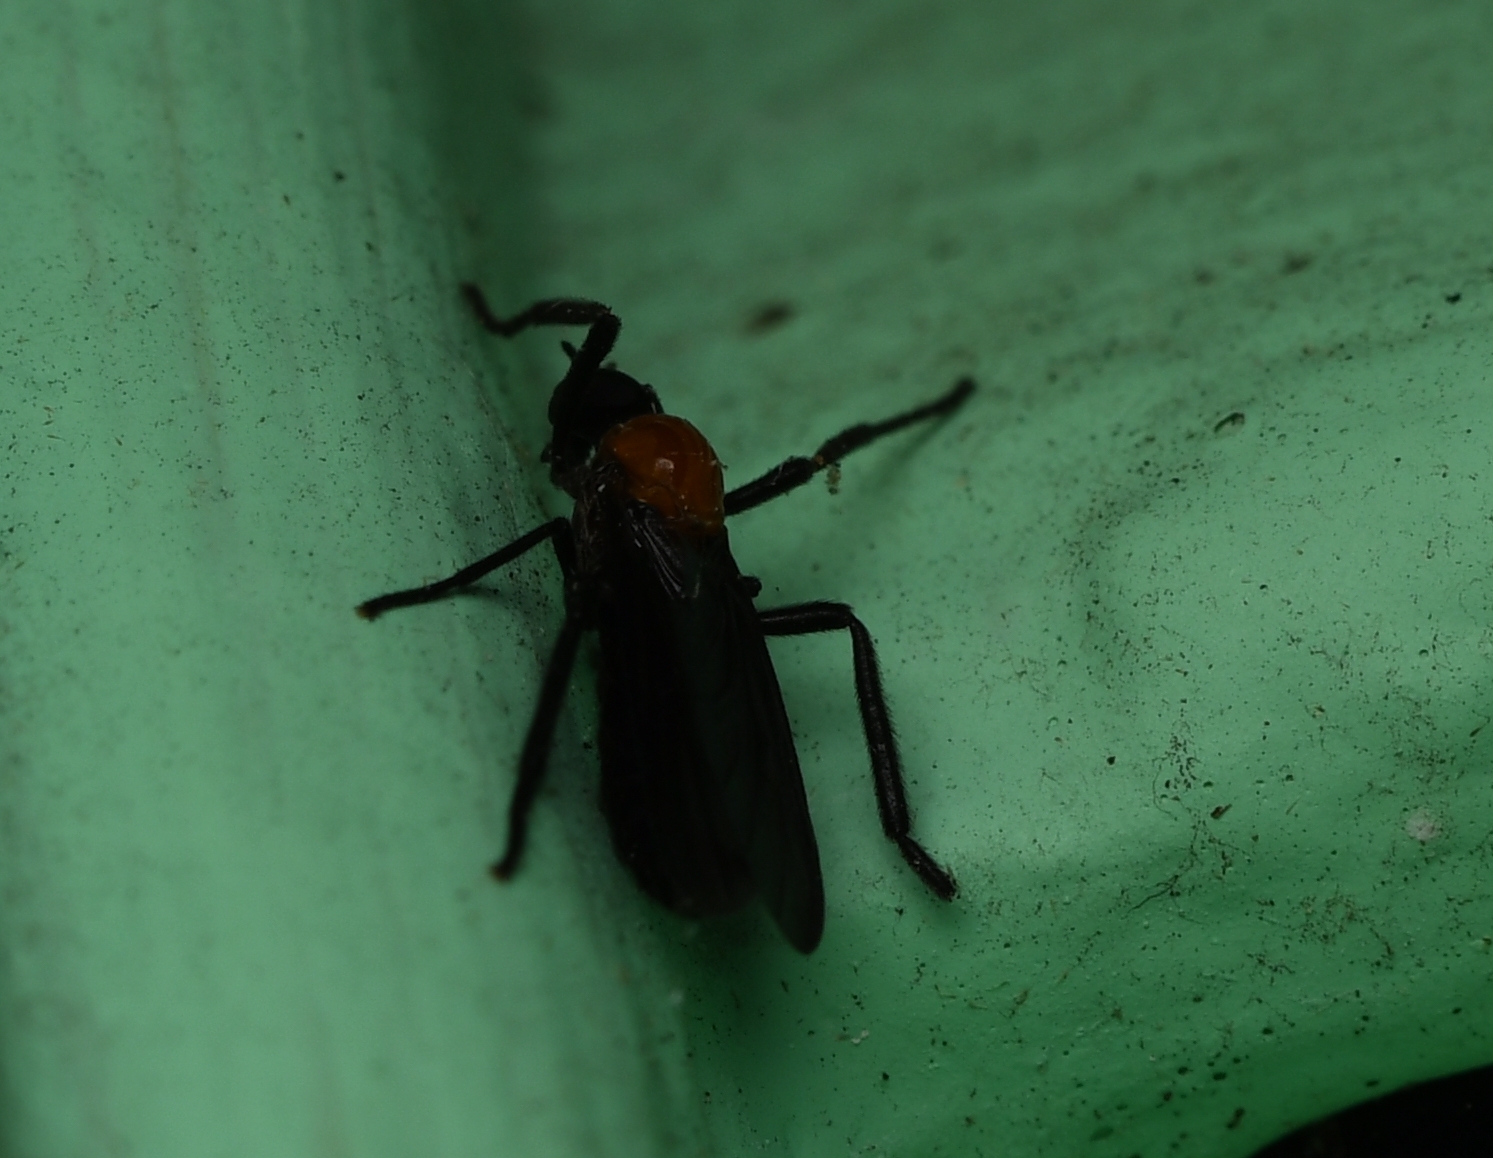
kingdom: Animalia
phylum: Arthropoda
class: Insecta
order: Diptera
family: Bibionidae
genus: Plecia
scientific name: Plecia nearctica
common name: March fly
